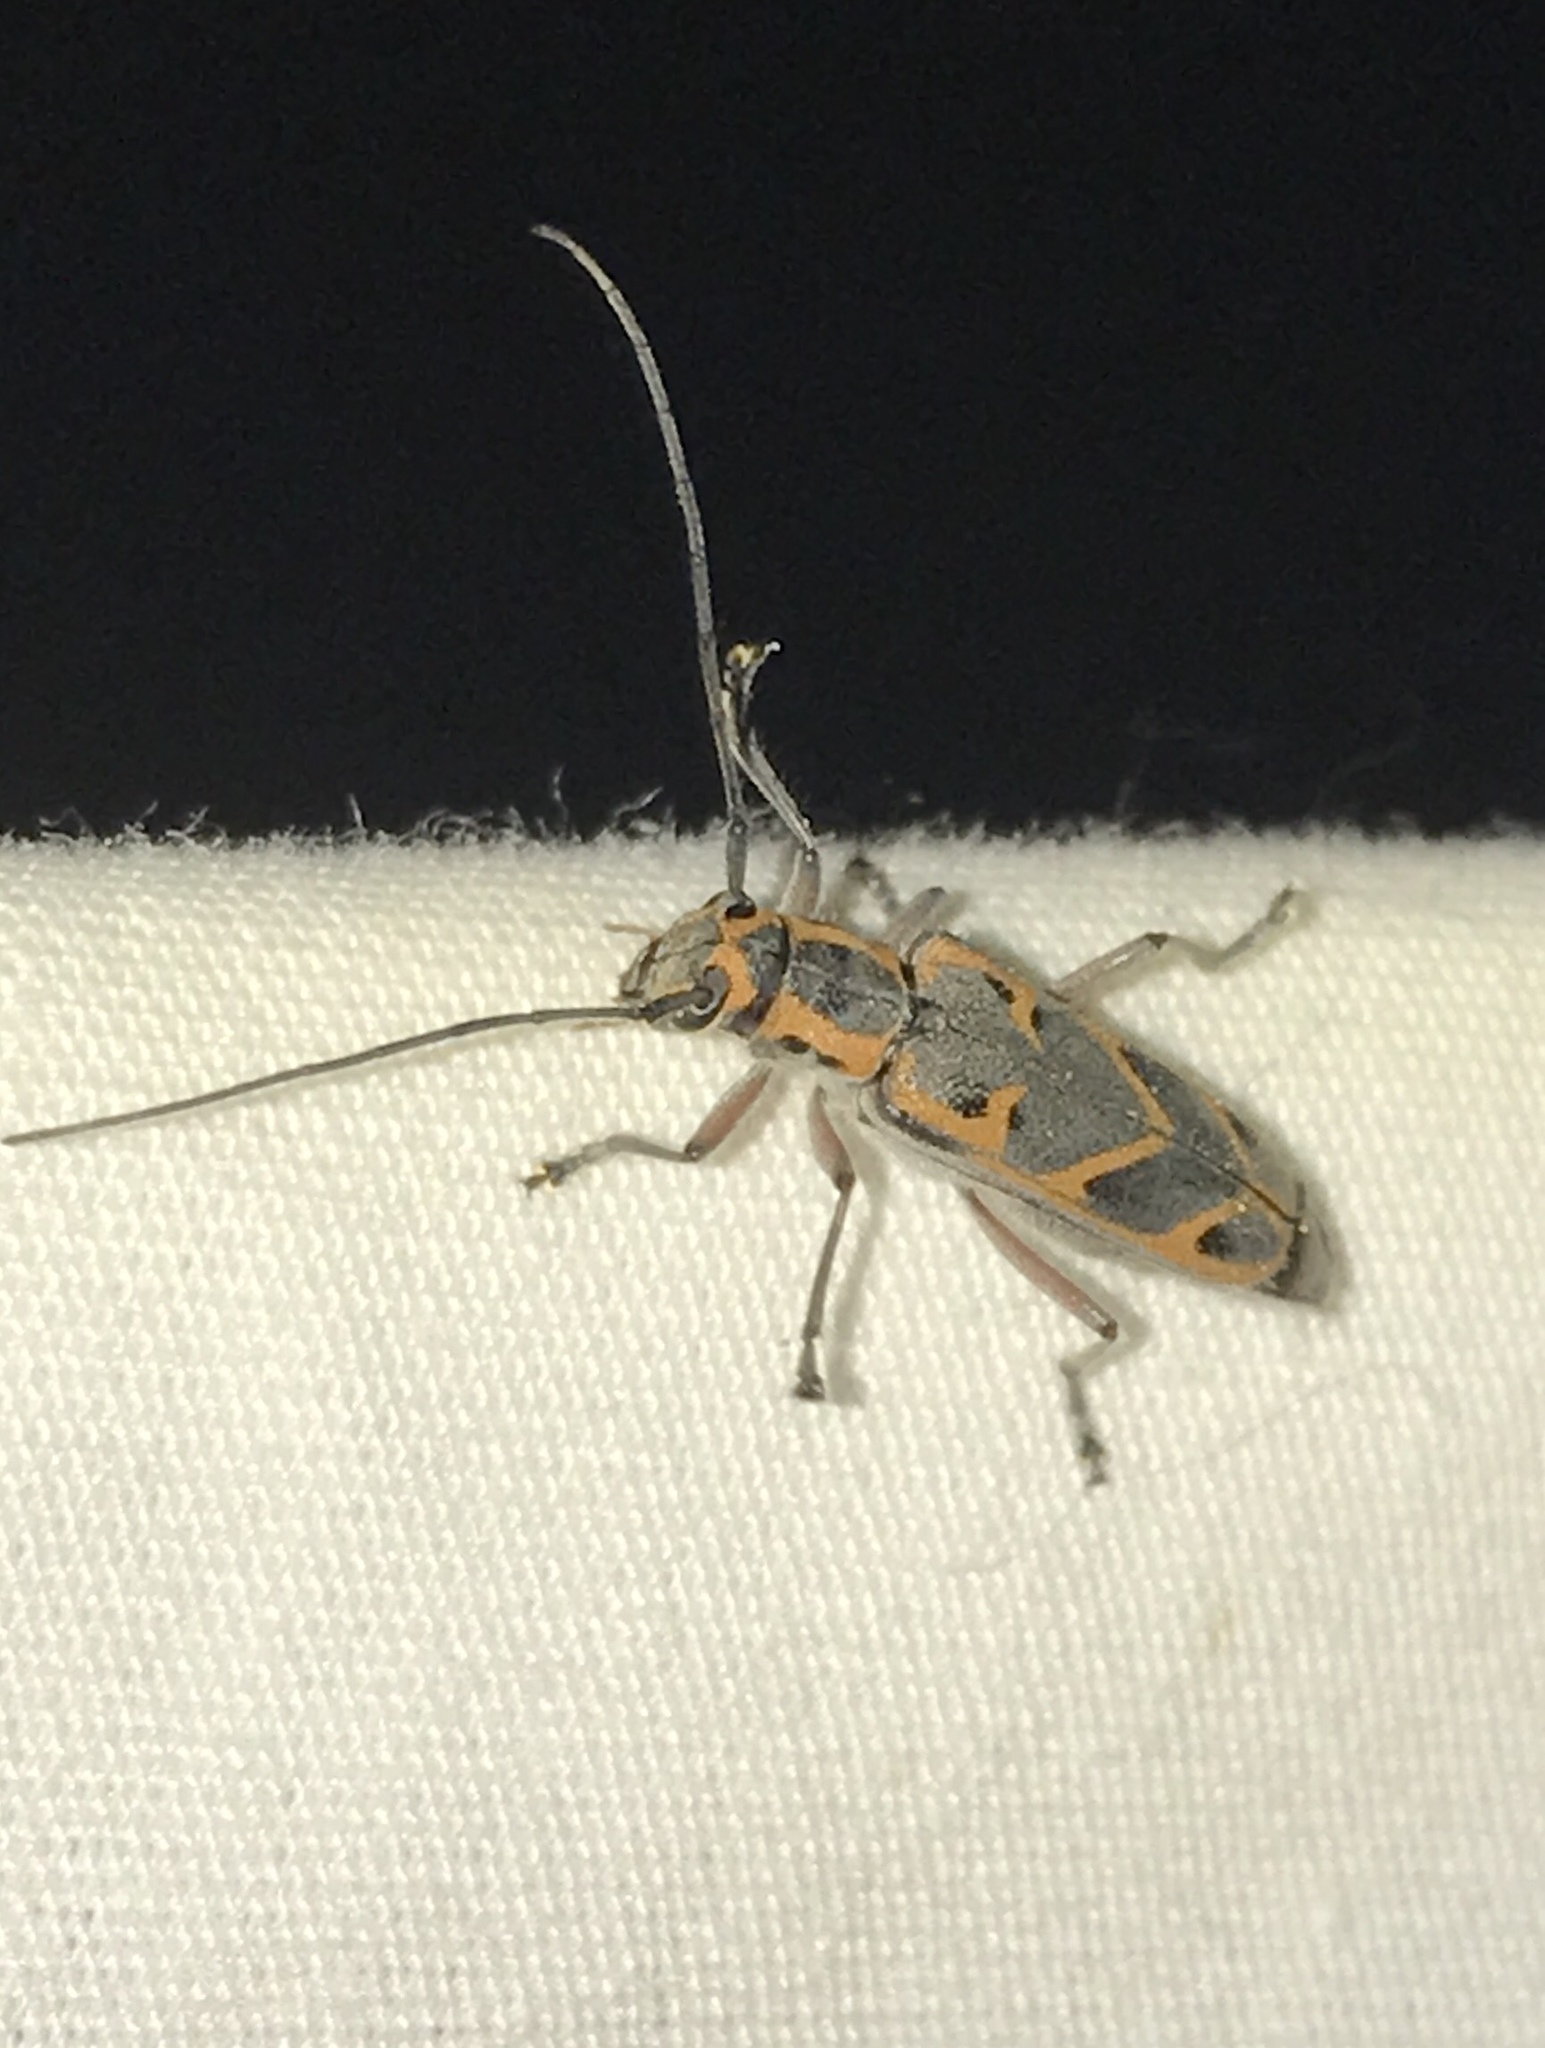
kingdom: Animalia
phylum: Arthropoda
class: Insecta
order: Coleoptera
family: Cerambycidae
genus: Saperda
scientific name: Saperda tridentata
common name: Elm borer
